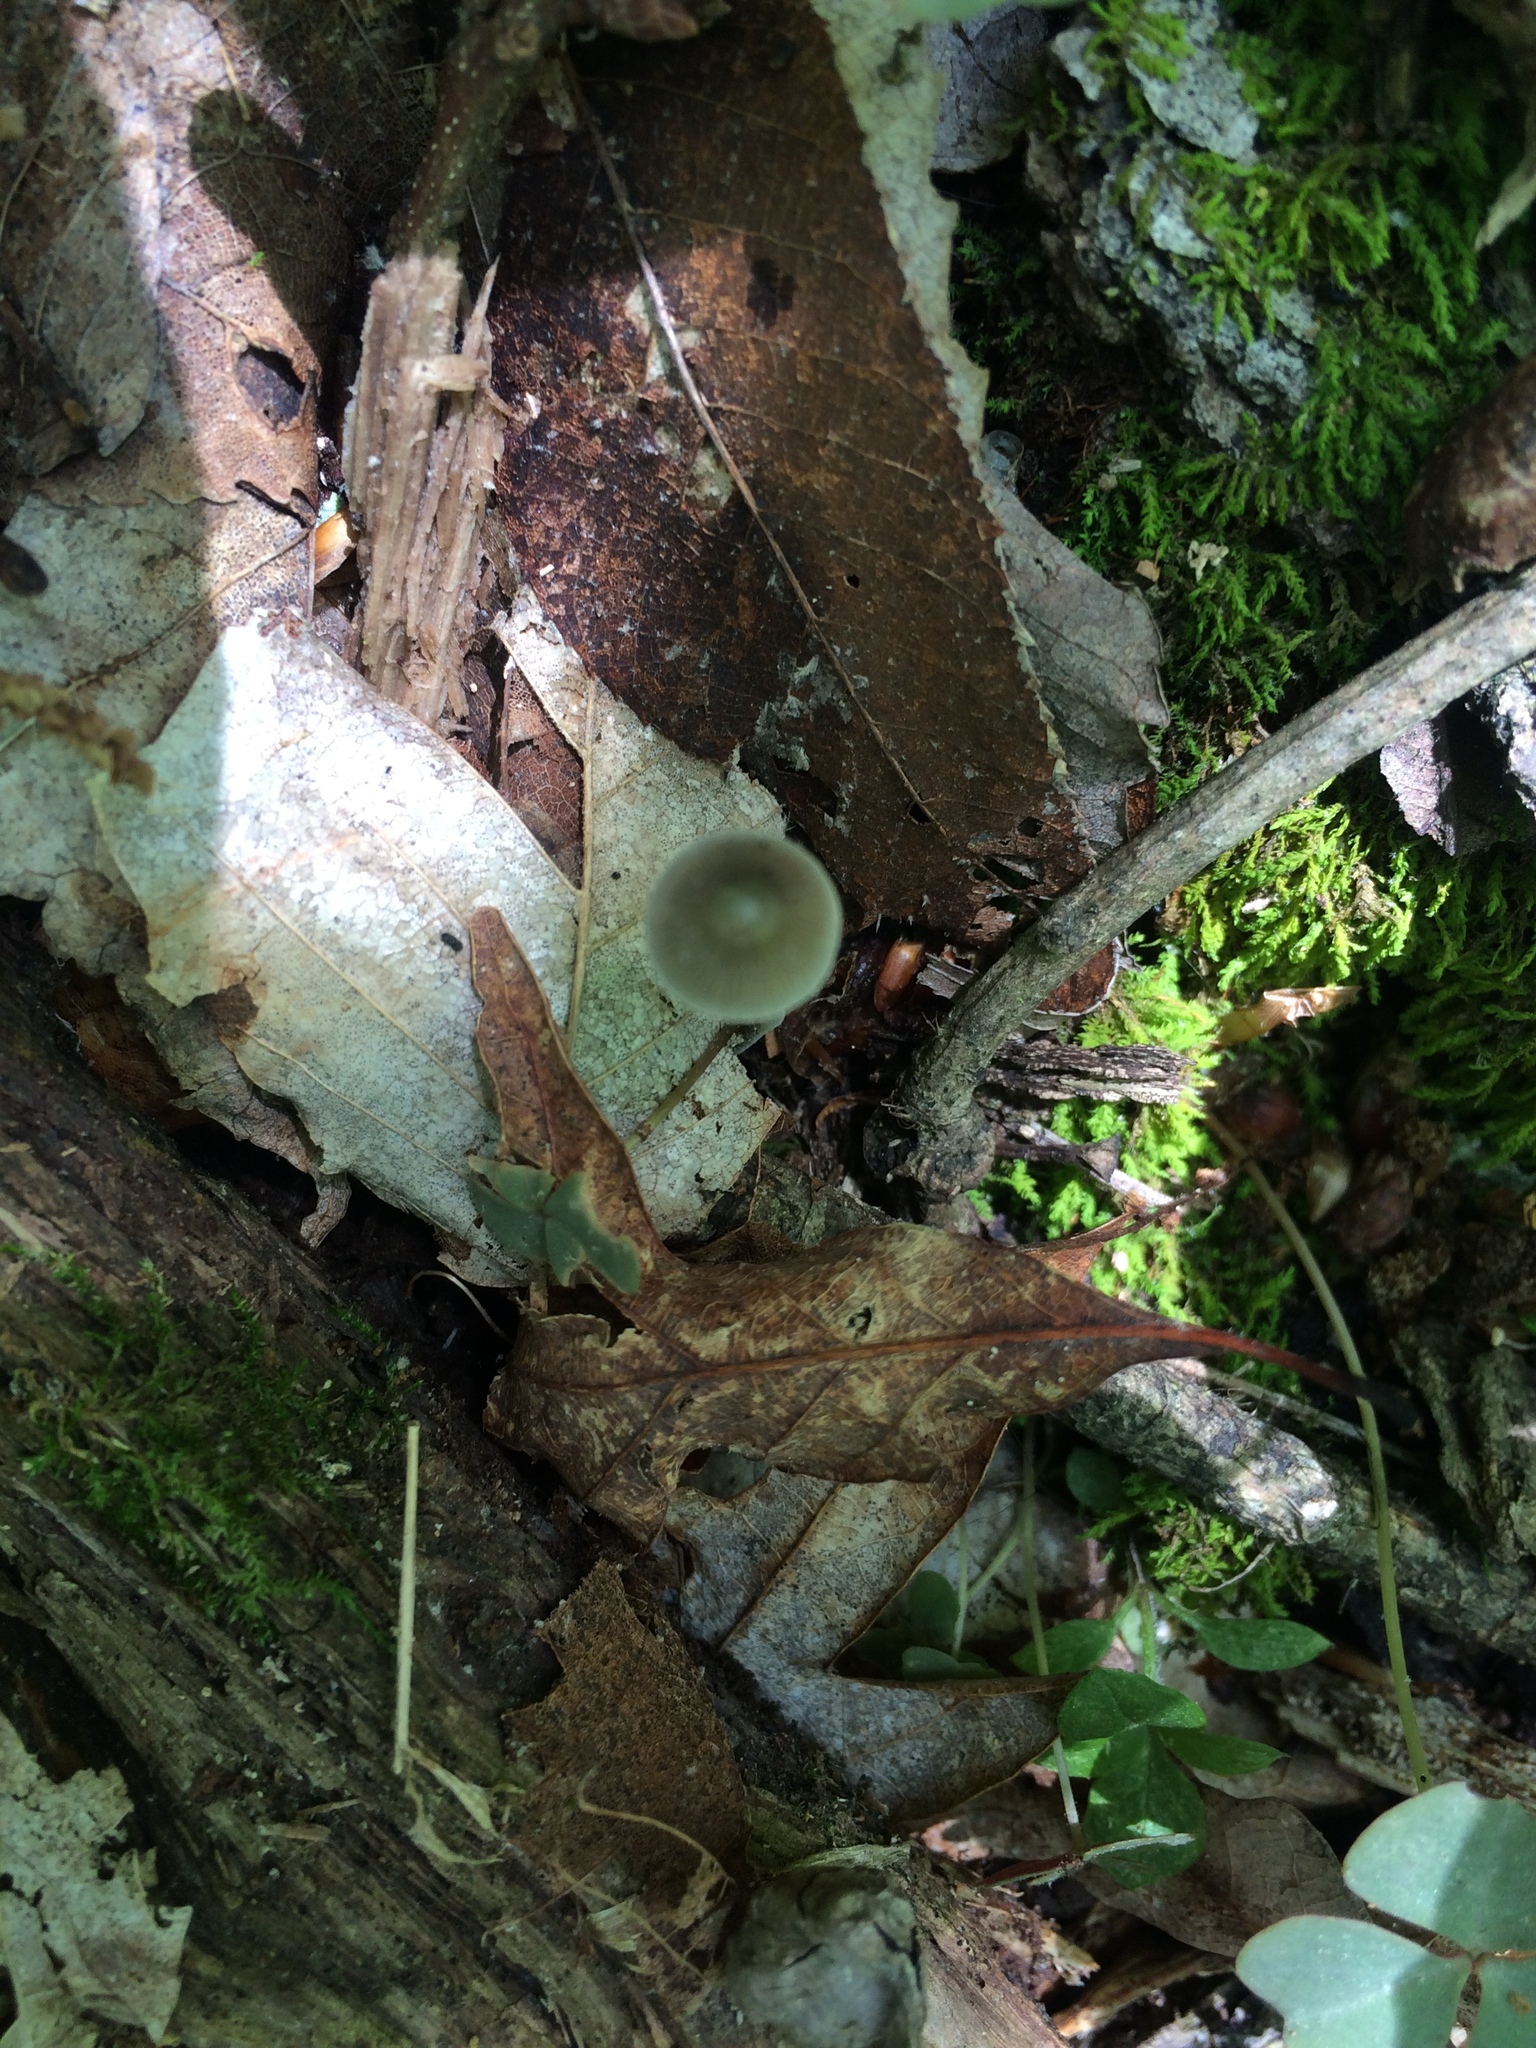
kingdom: Fungi
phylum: Basidiomycota
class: Agaricomycetes
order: Agaricales
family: Mycenaceae
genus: Mycena
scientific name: Mycena subcaerulea
